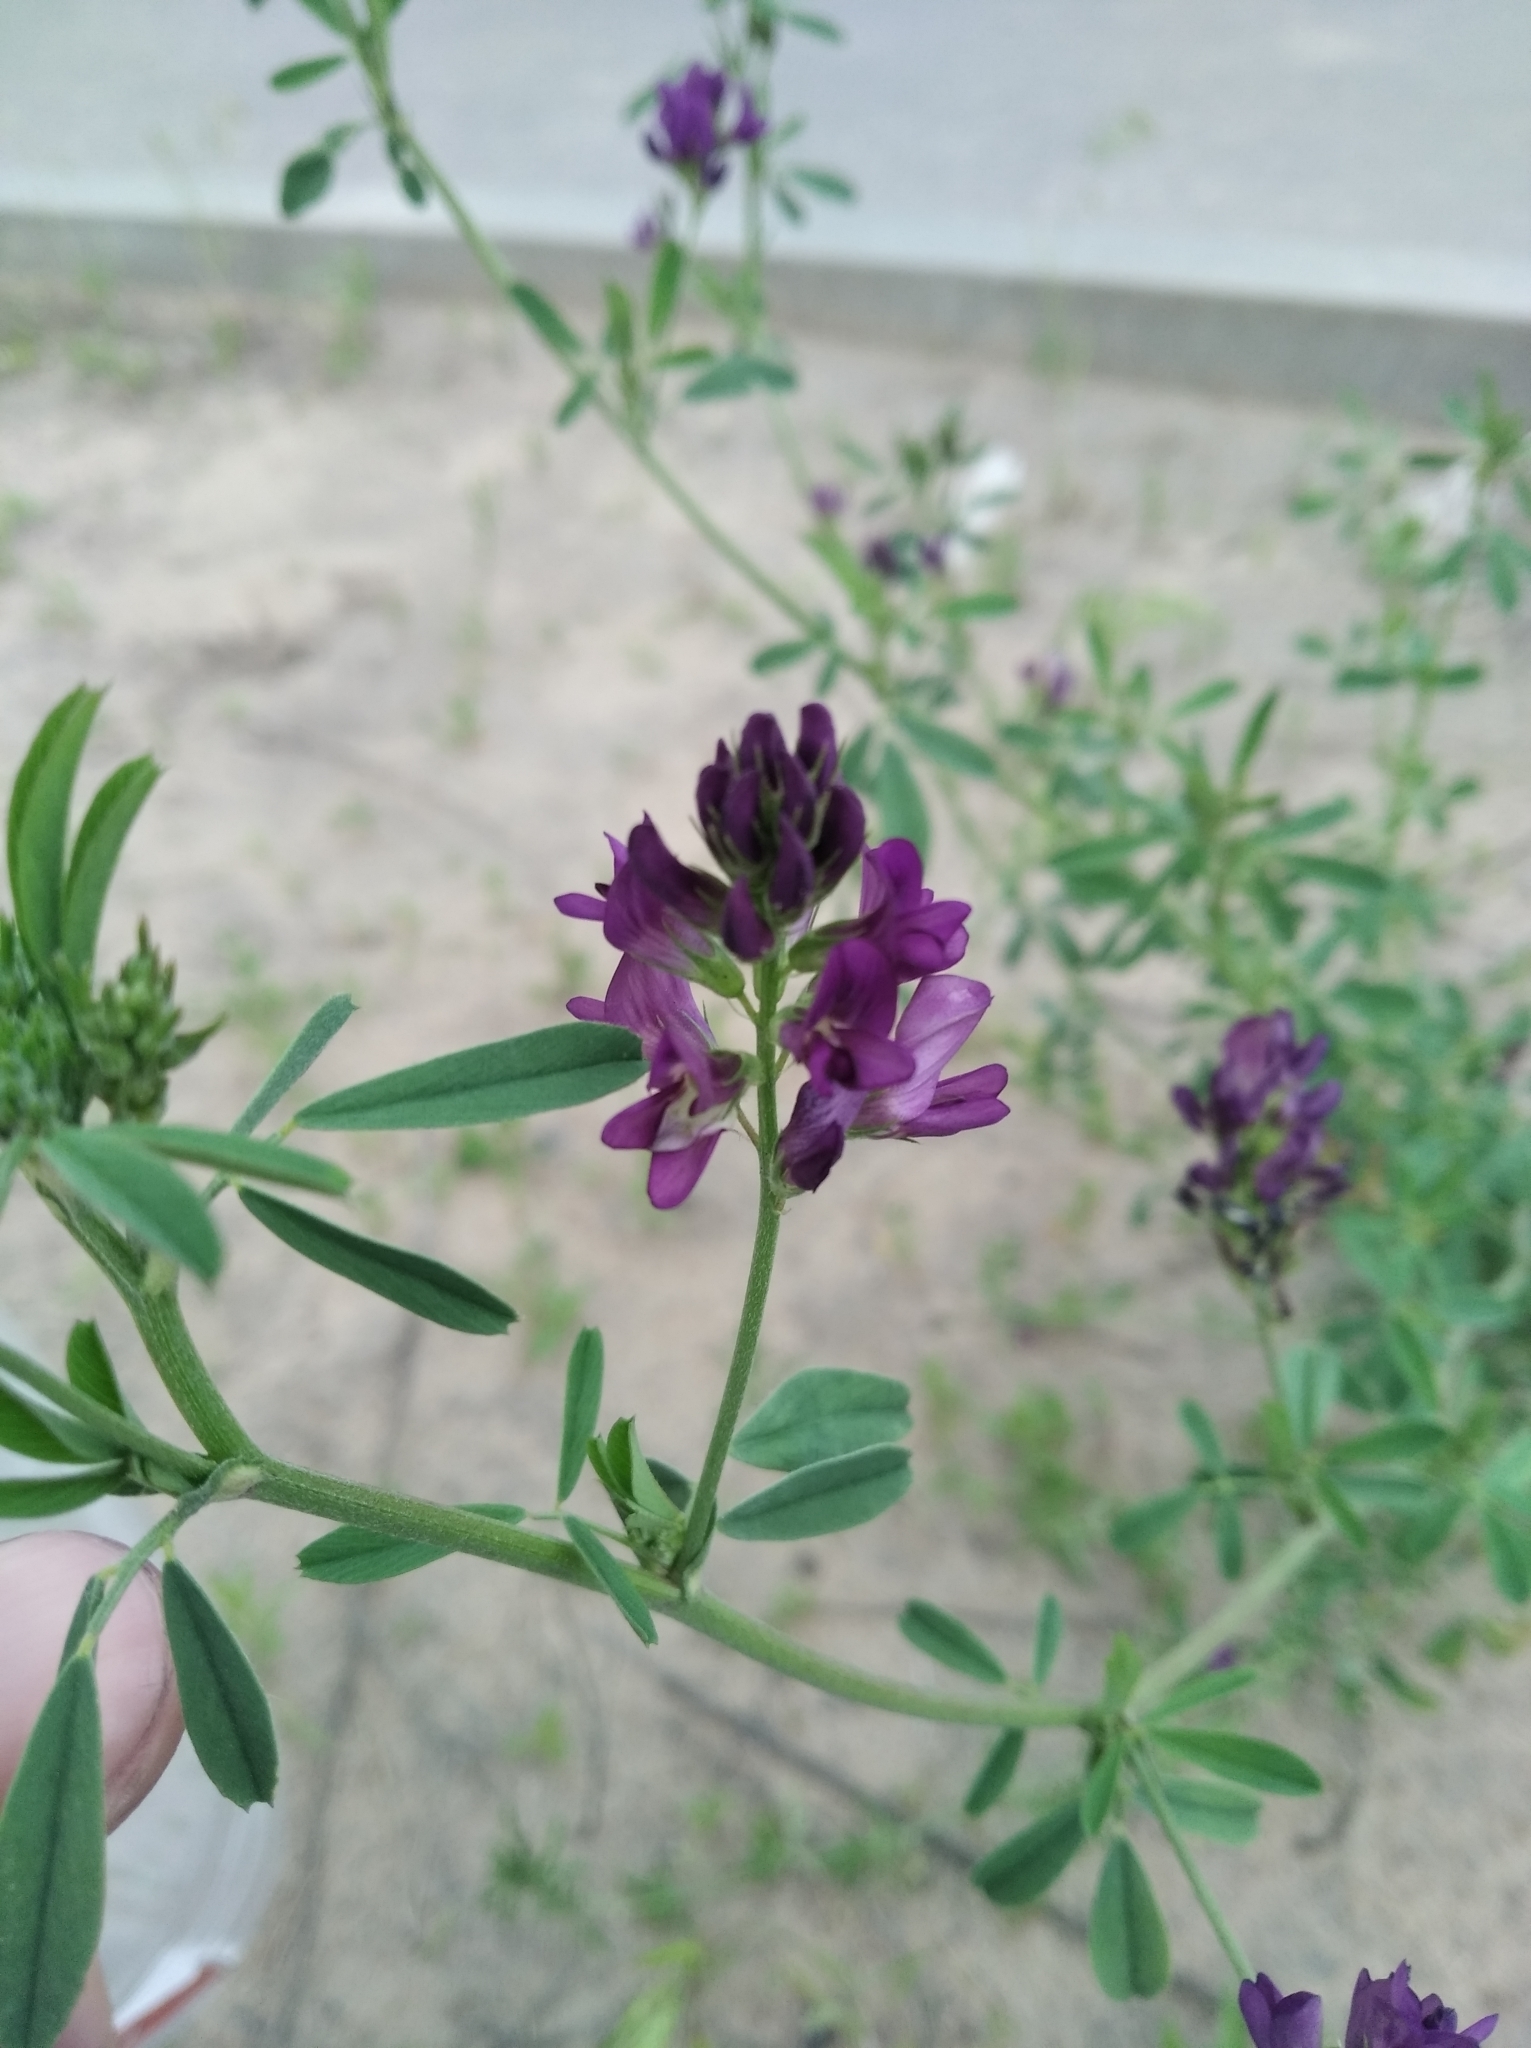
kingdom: Plantae
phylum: Tracheophyta
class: Magnoliopsida
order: Fabales
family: Fabaceae
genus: Medicago
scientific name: Medicago sativa
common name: Alfalfa
